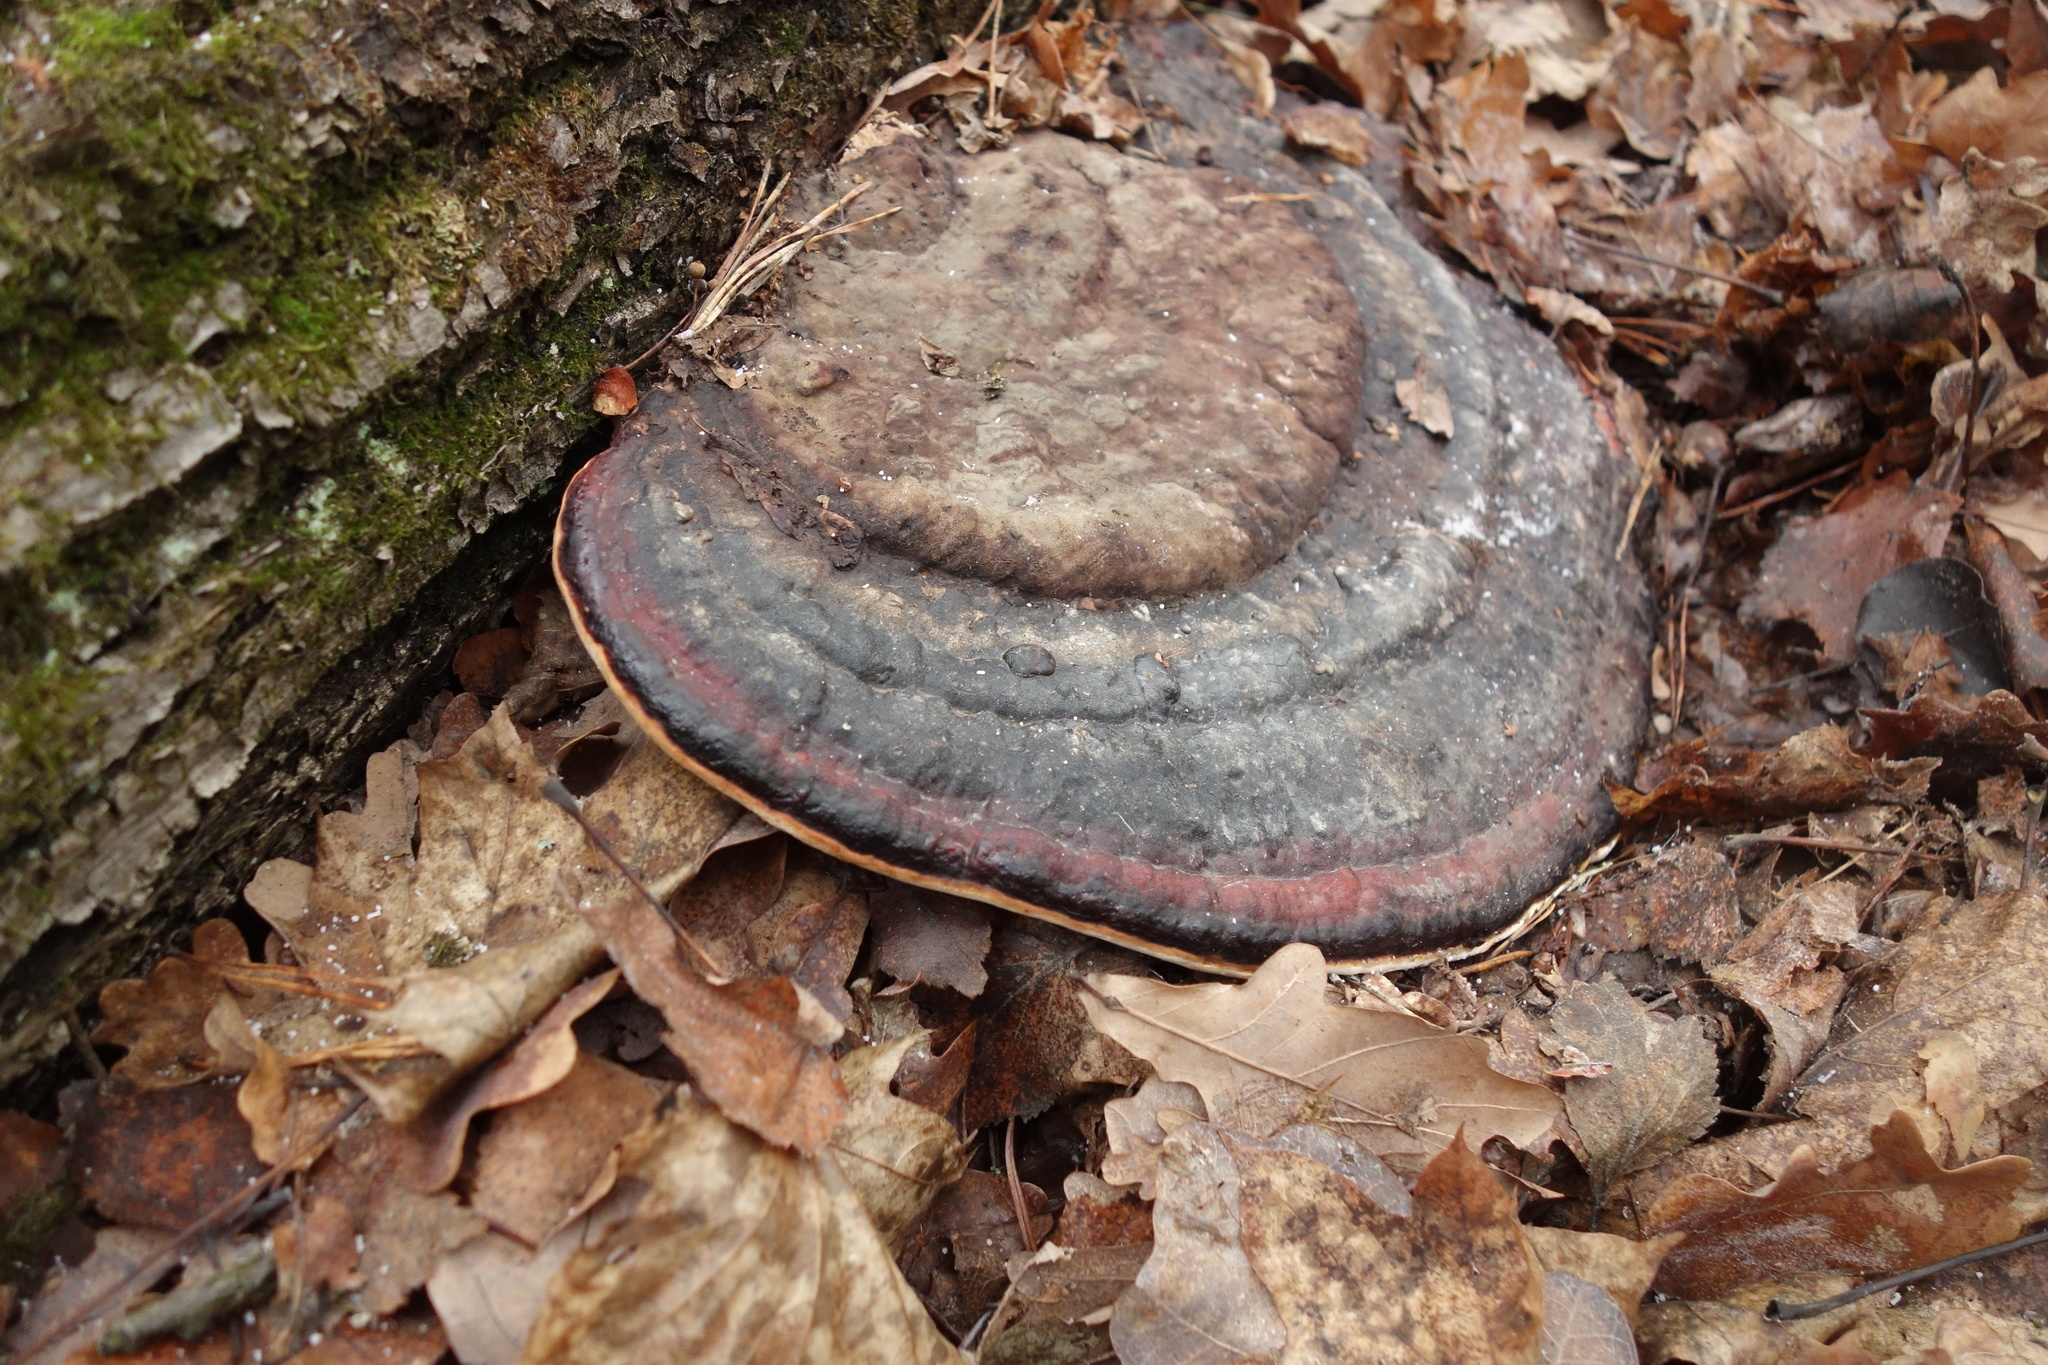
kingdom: Fungi
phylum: Basidiomycota
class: Agaricomycetes
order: Polyporales
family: Fomitopsidaceae
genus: Fomitopsis
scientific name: Fomitopsis pinicola
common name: Red-belted bracket
